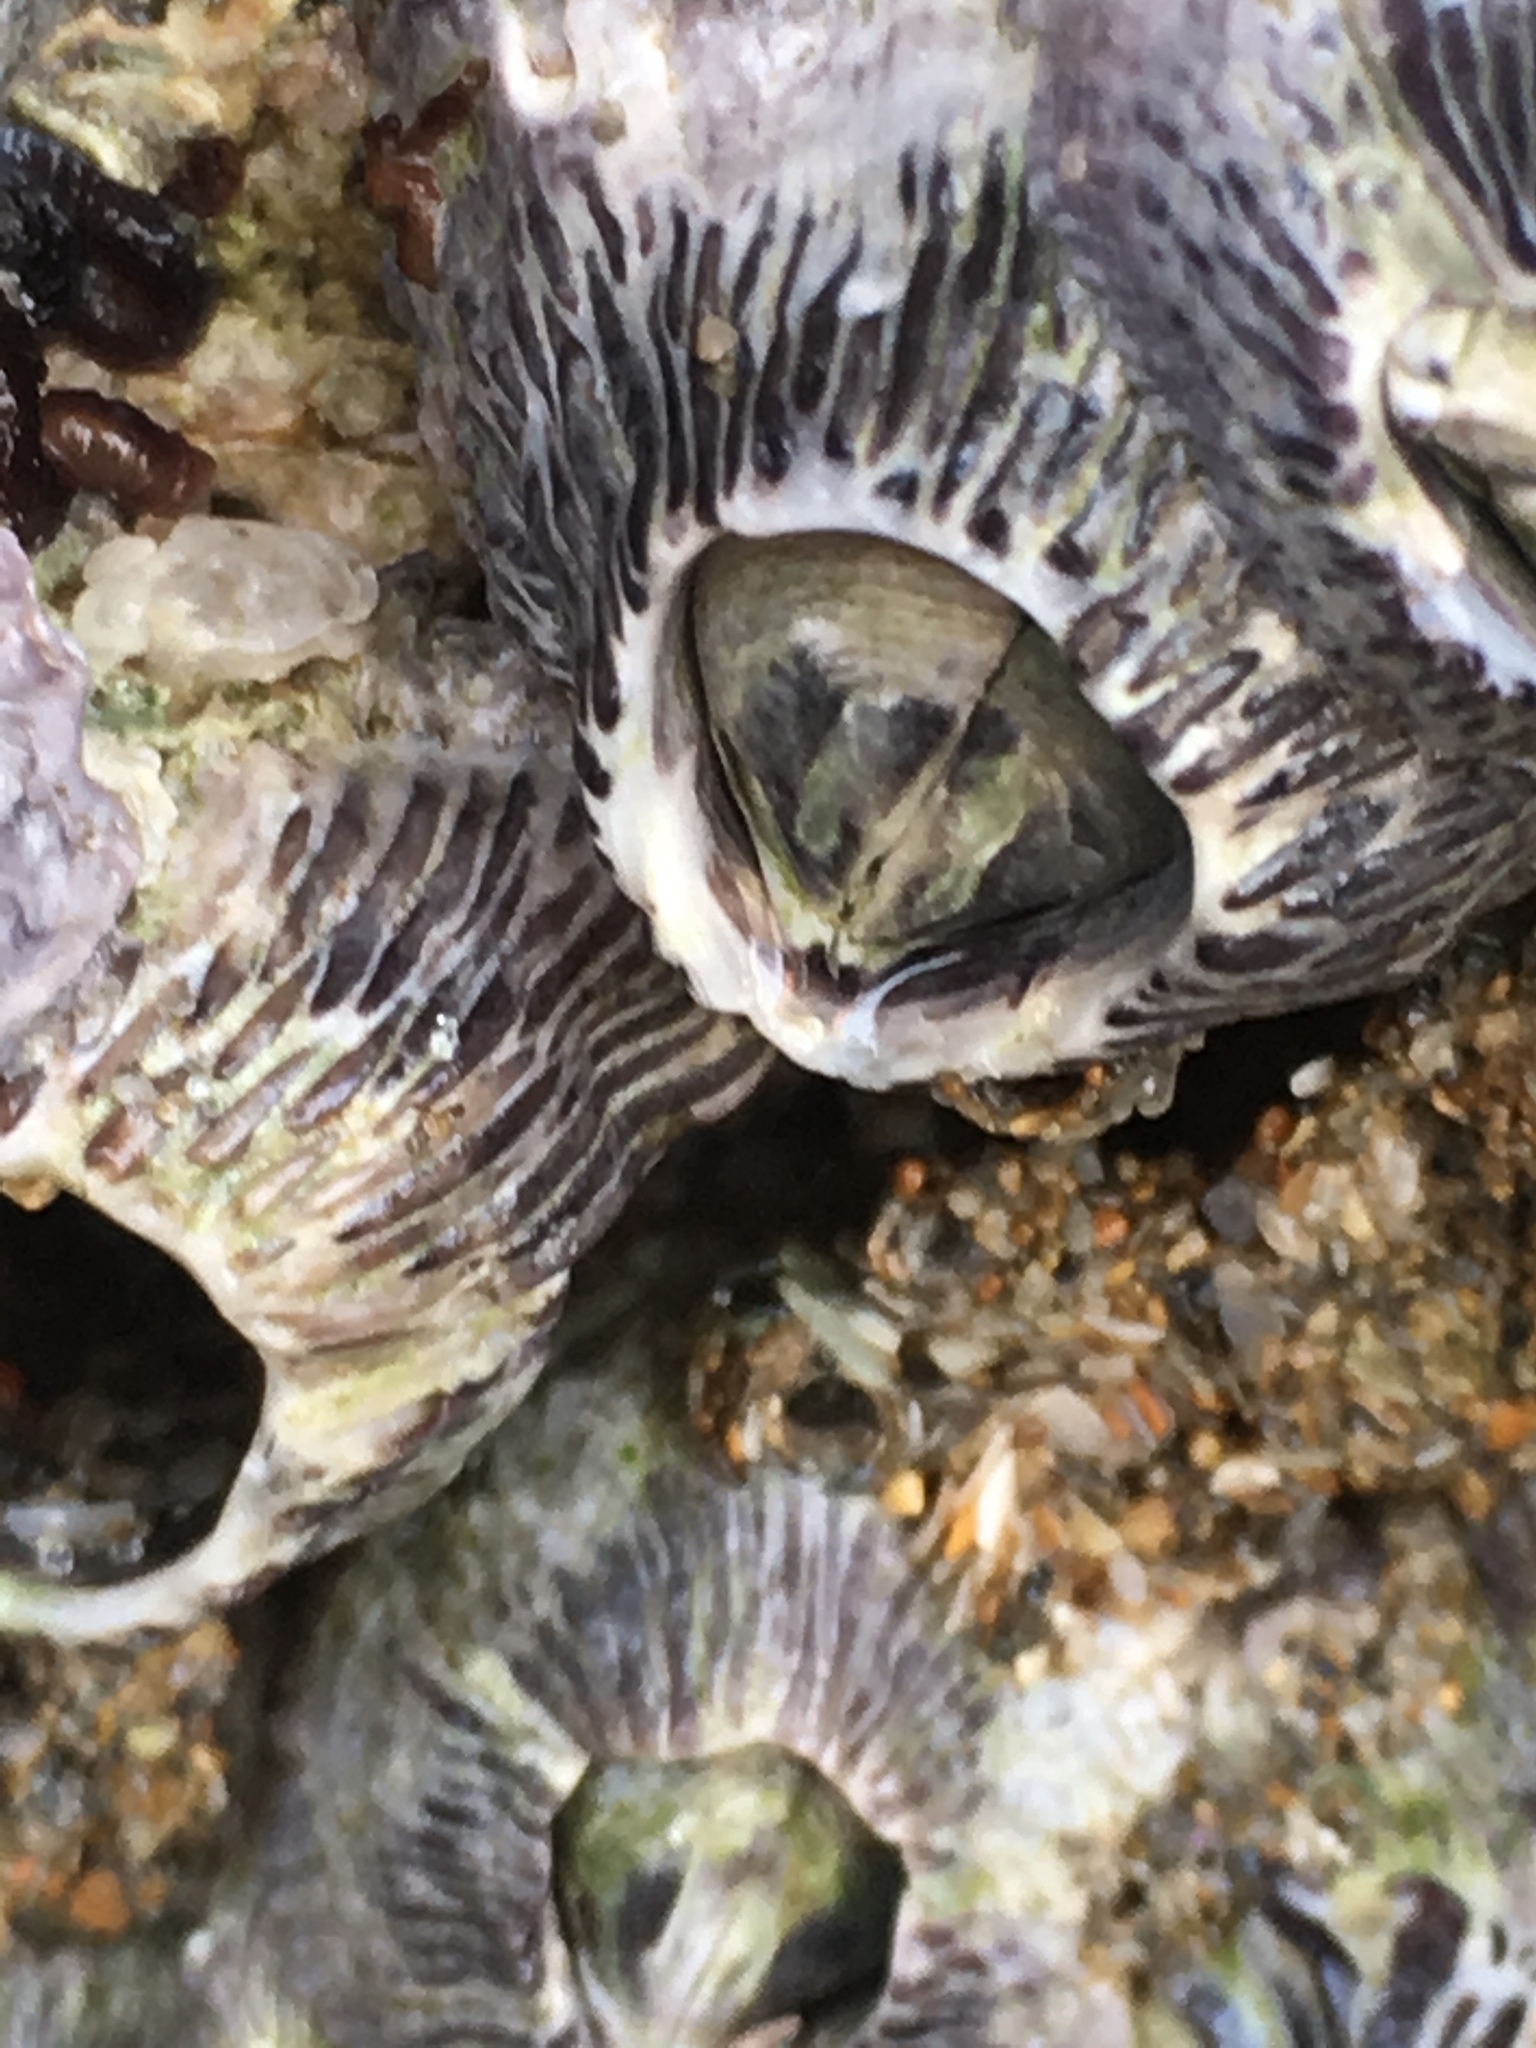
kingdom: Animalia
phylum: Arthropoda
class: Maxillopoda
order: Sessilia
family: Tetraclitidae
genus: Tetraclita
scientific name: Tetraclita stalactifera
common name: Ribbed barnacle
